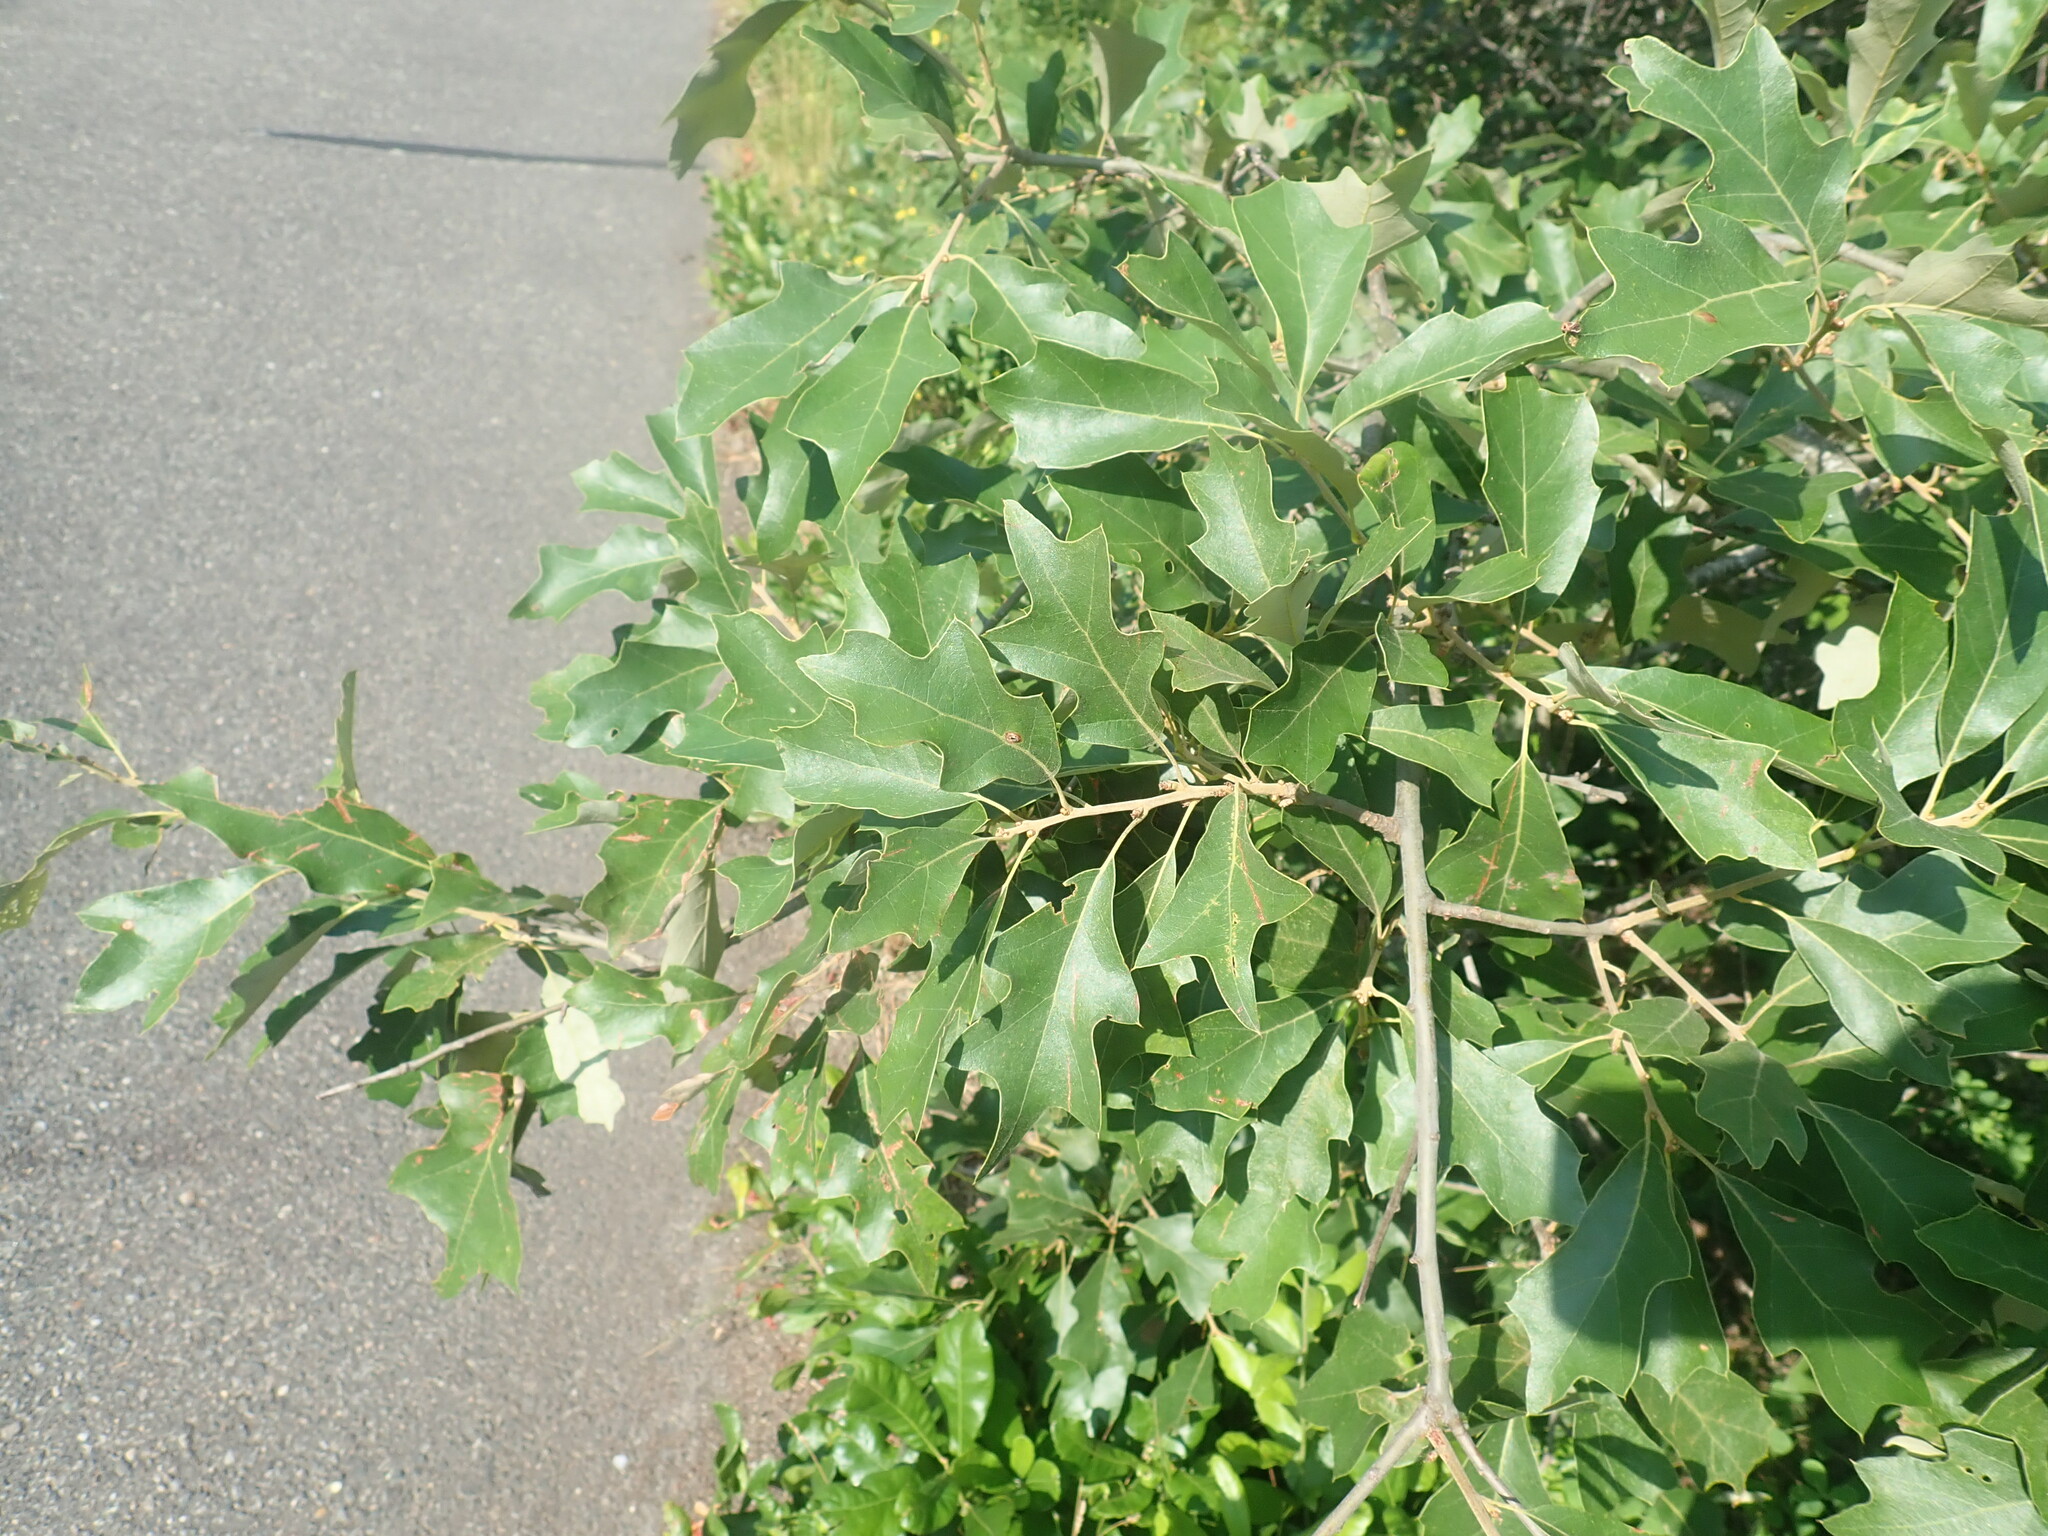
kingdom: Plantae
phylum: Tracheophyta
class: Magnoliopsida
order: Fagales
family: Fagaceae
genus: Quercus
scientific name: Quercus ilicifolia
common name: Bear oak
